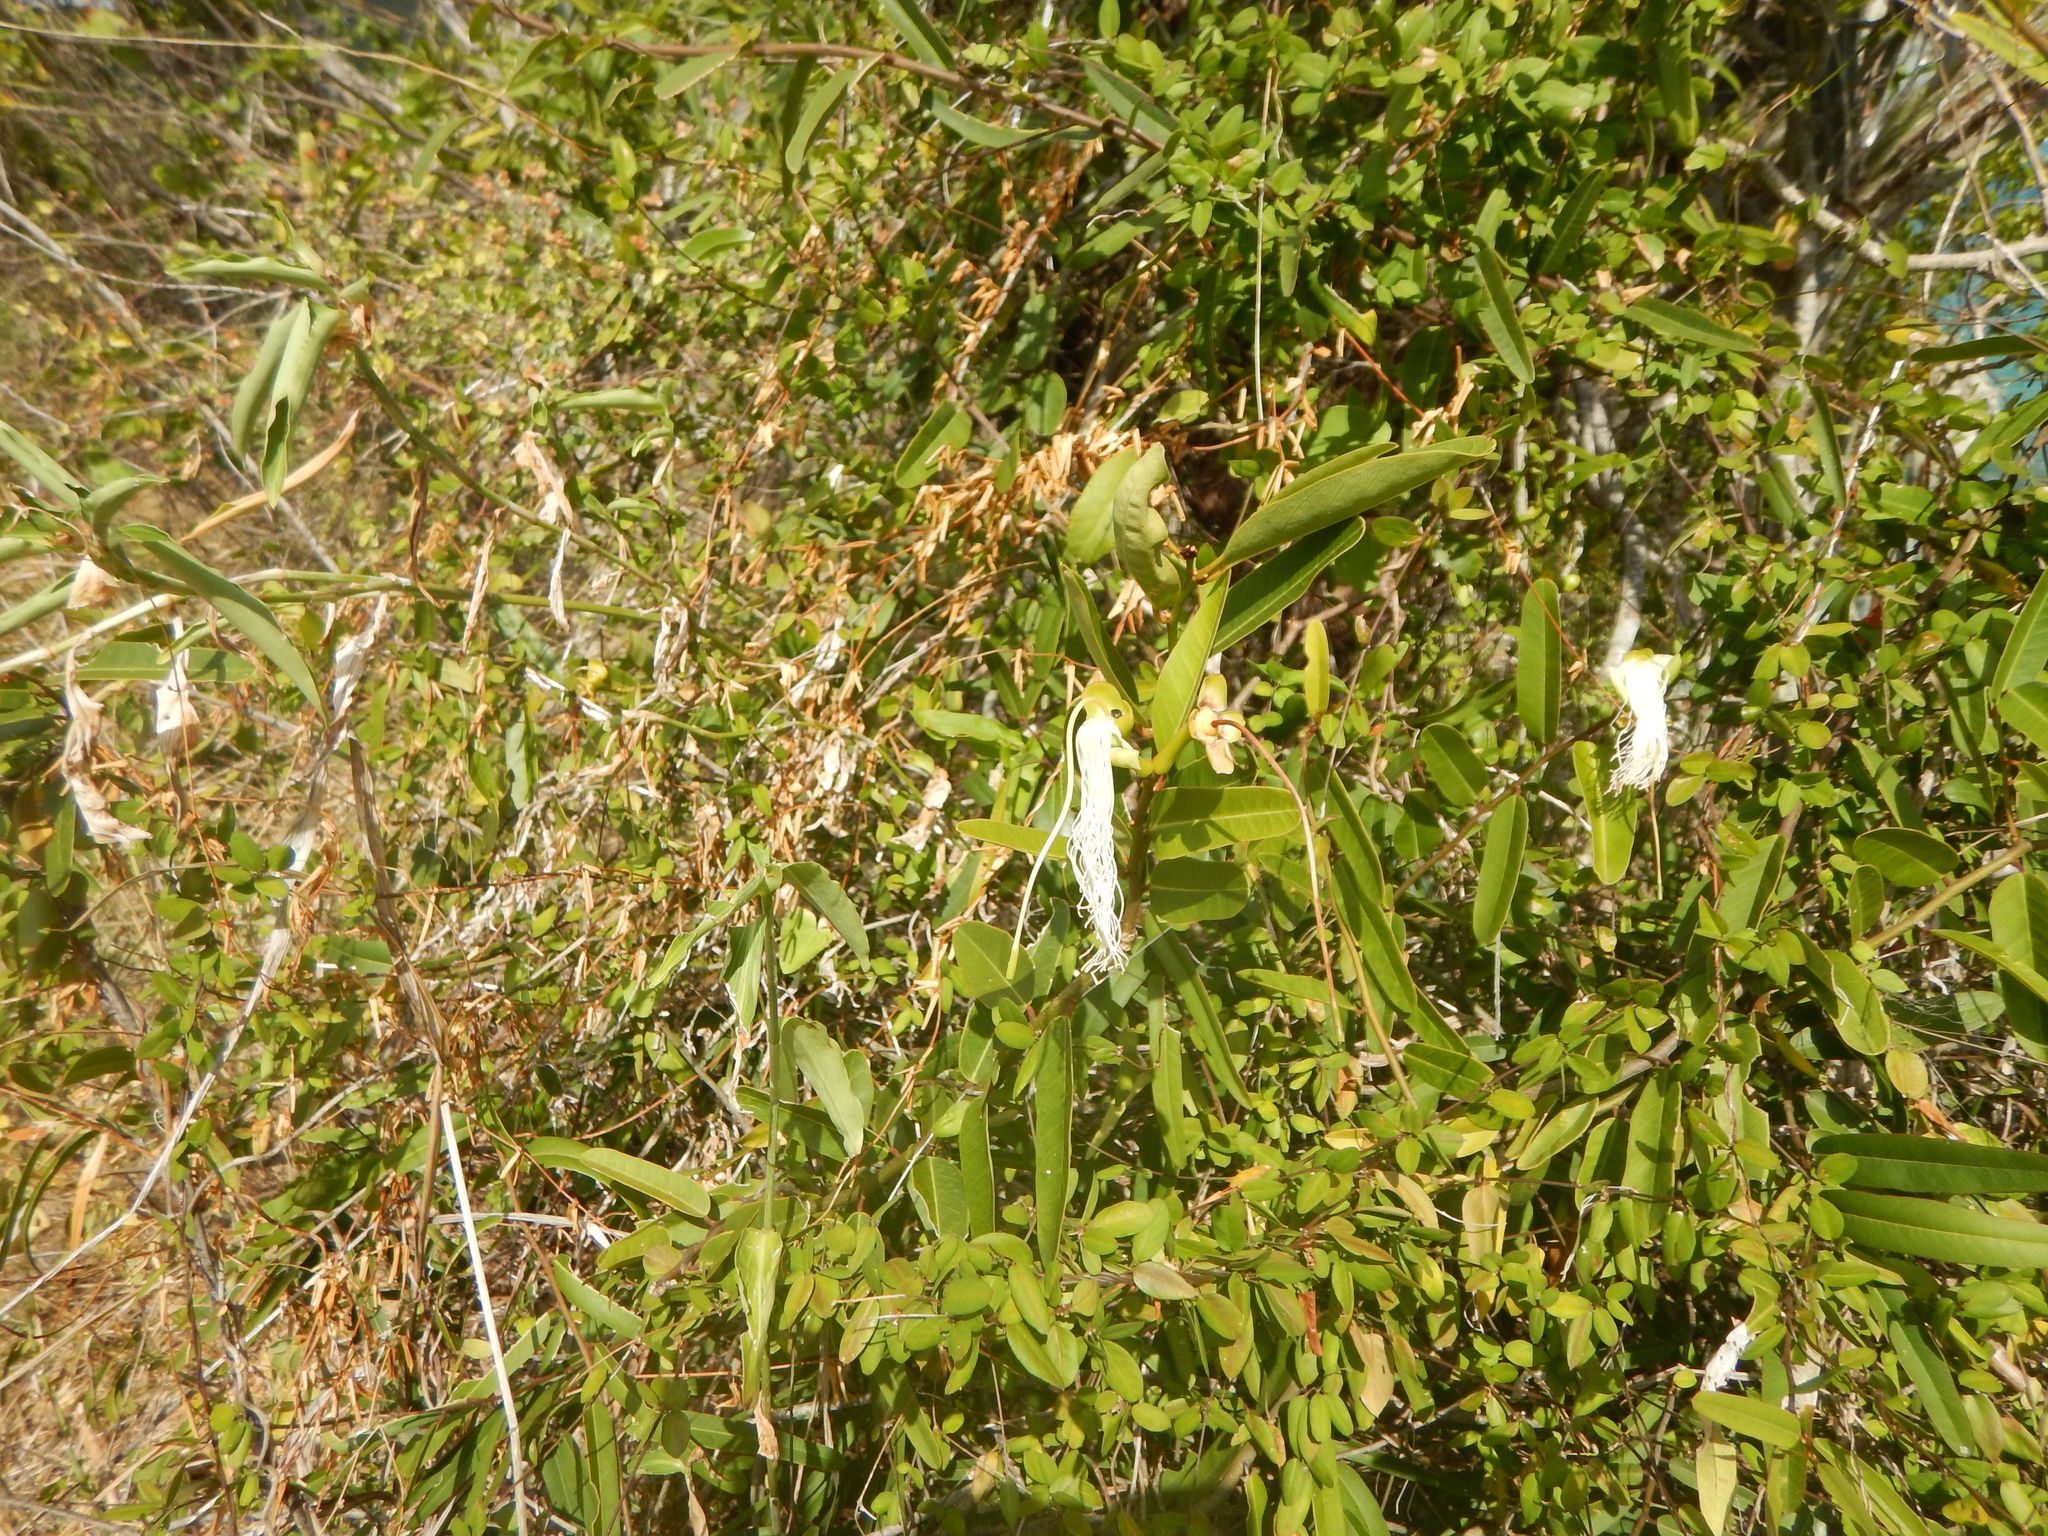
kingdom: Plantae
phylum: Tracheophyta
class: Magnoliopsida
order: Brassicales
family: Capparaceae
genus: Cynophalla
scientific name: Cynophalla flexuosa
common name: Capertree
